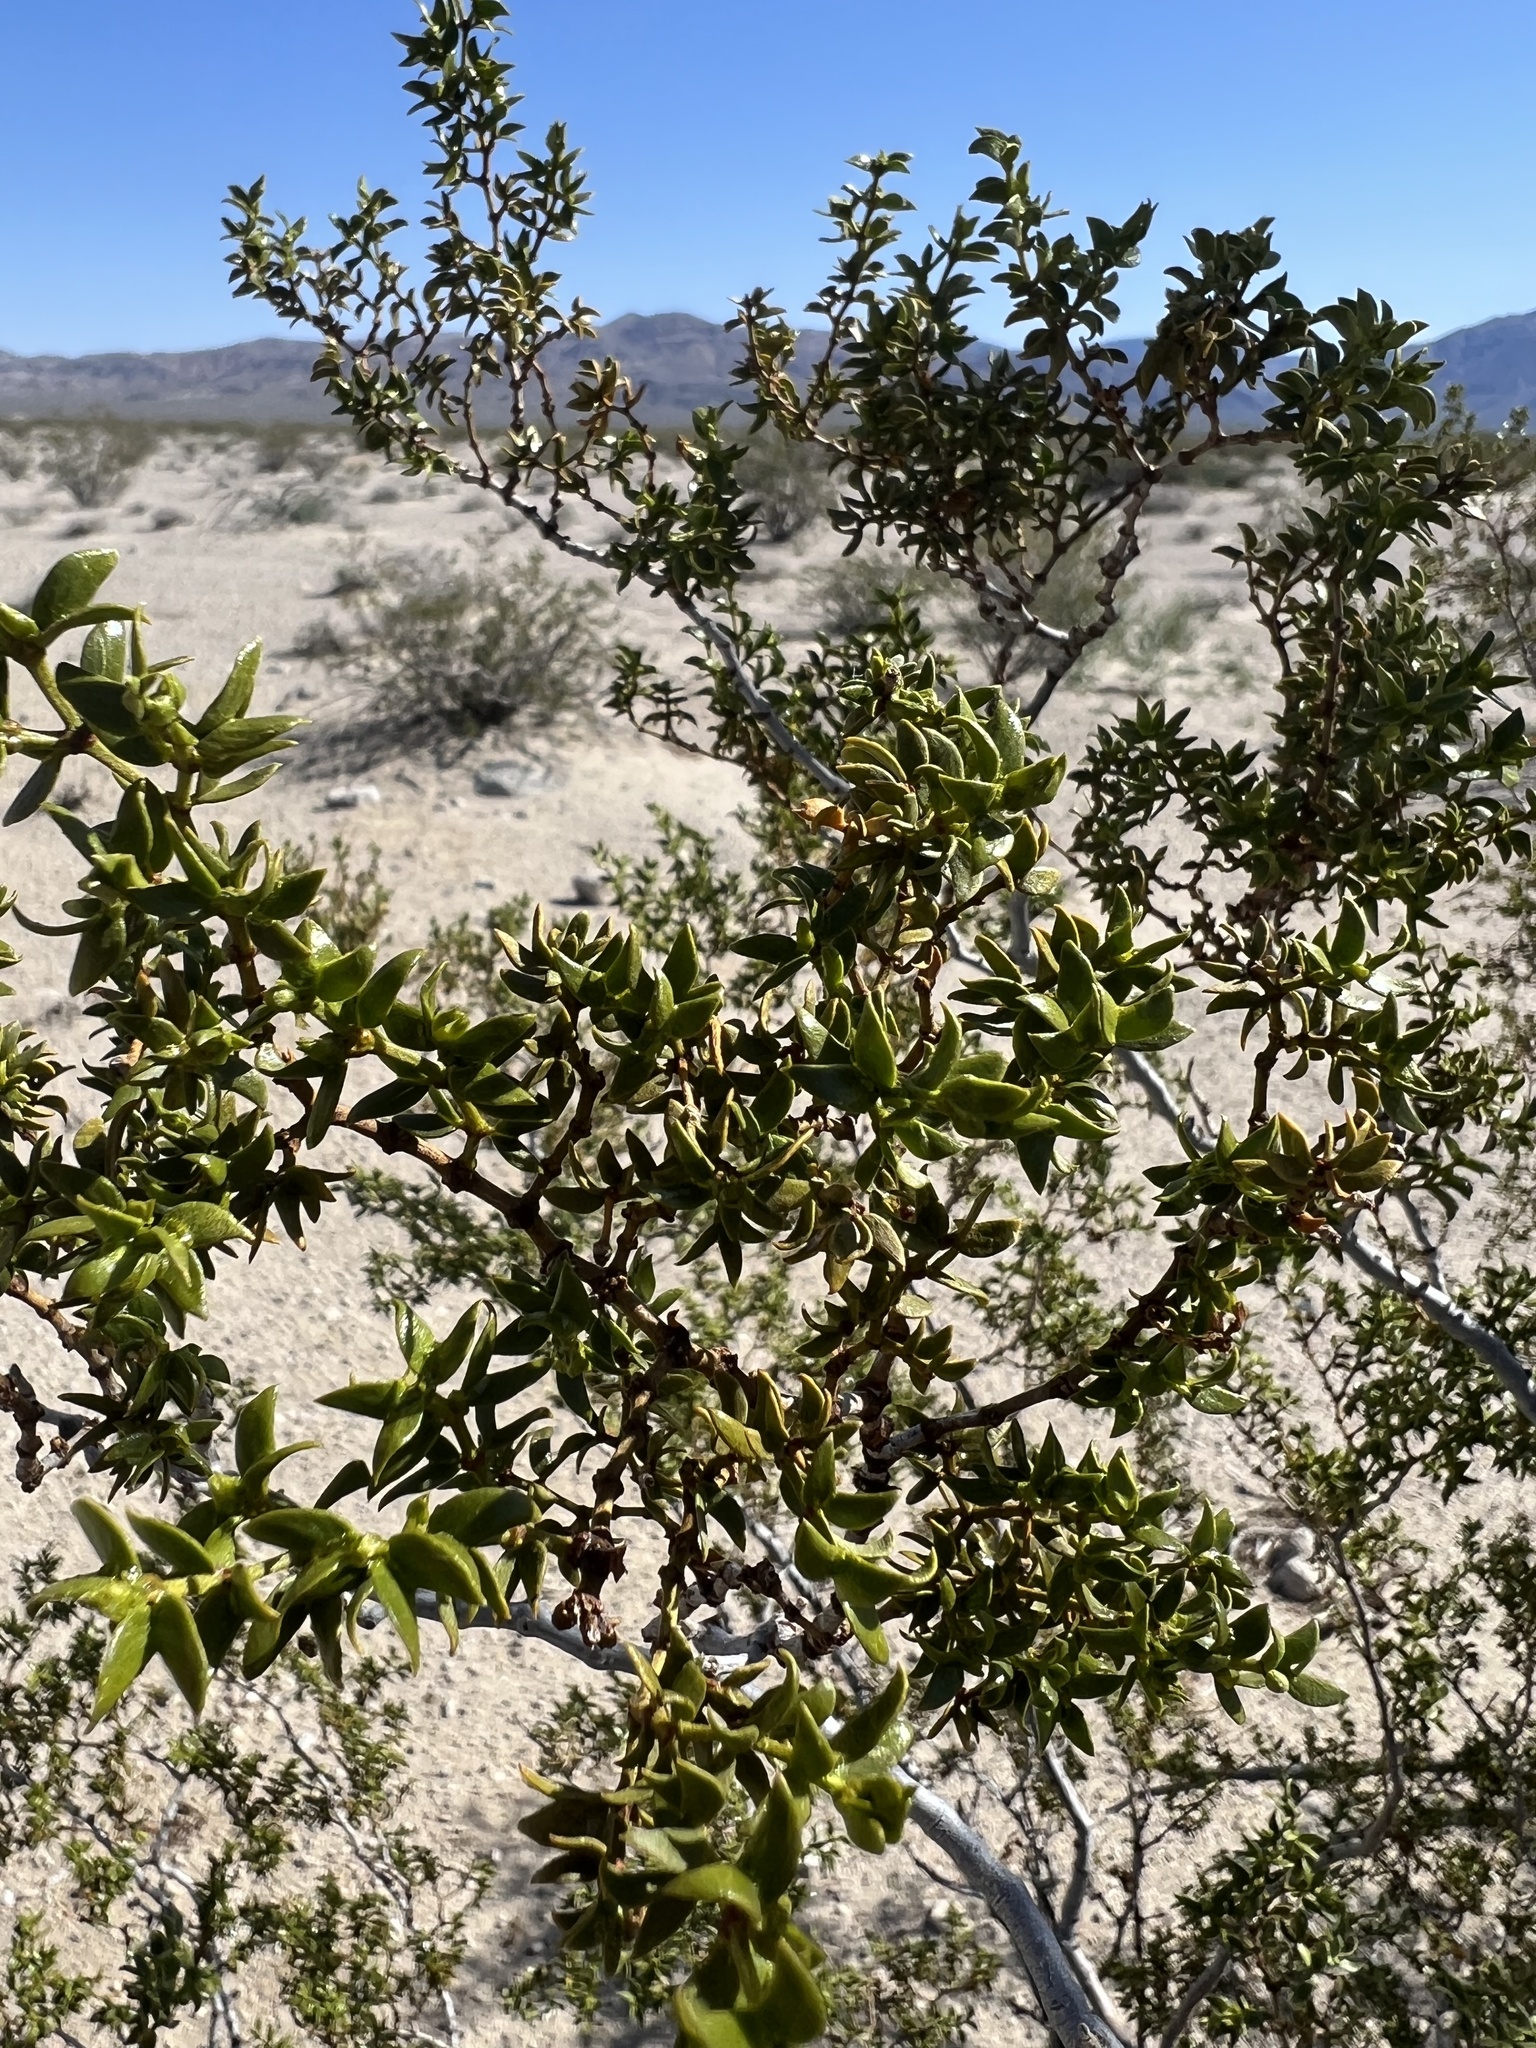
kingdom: Plantae
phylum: Tracheophyta
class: Magnoliopsida
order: Zygophyllales
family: Zygophyllaceae
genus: Larrea
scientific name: Larrea tridentata
